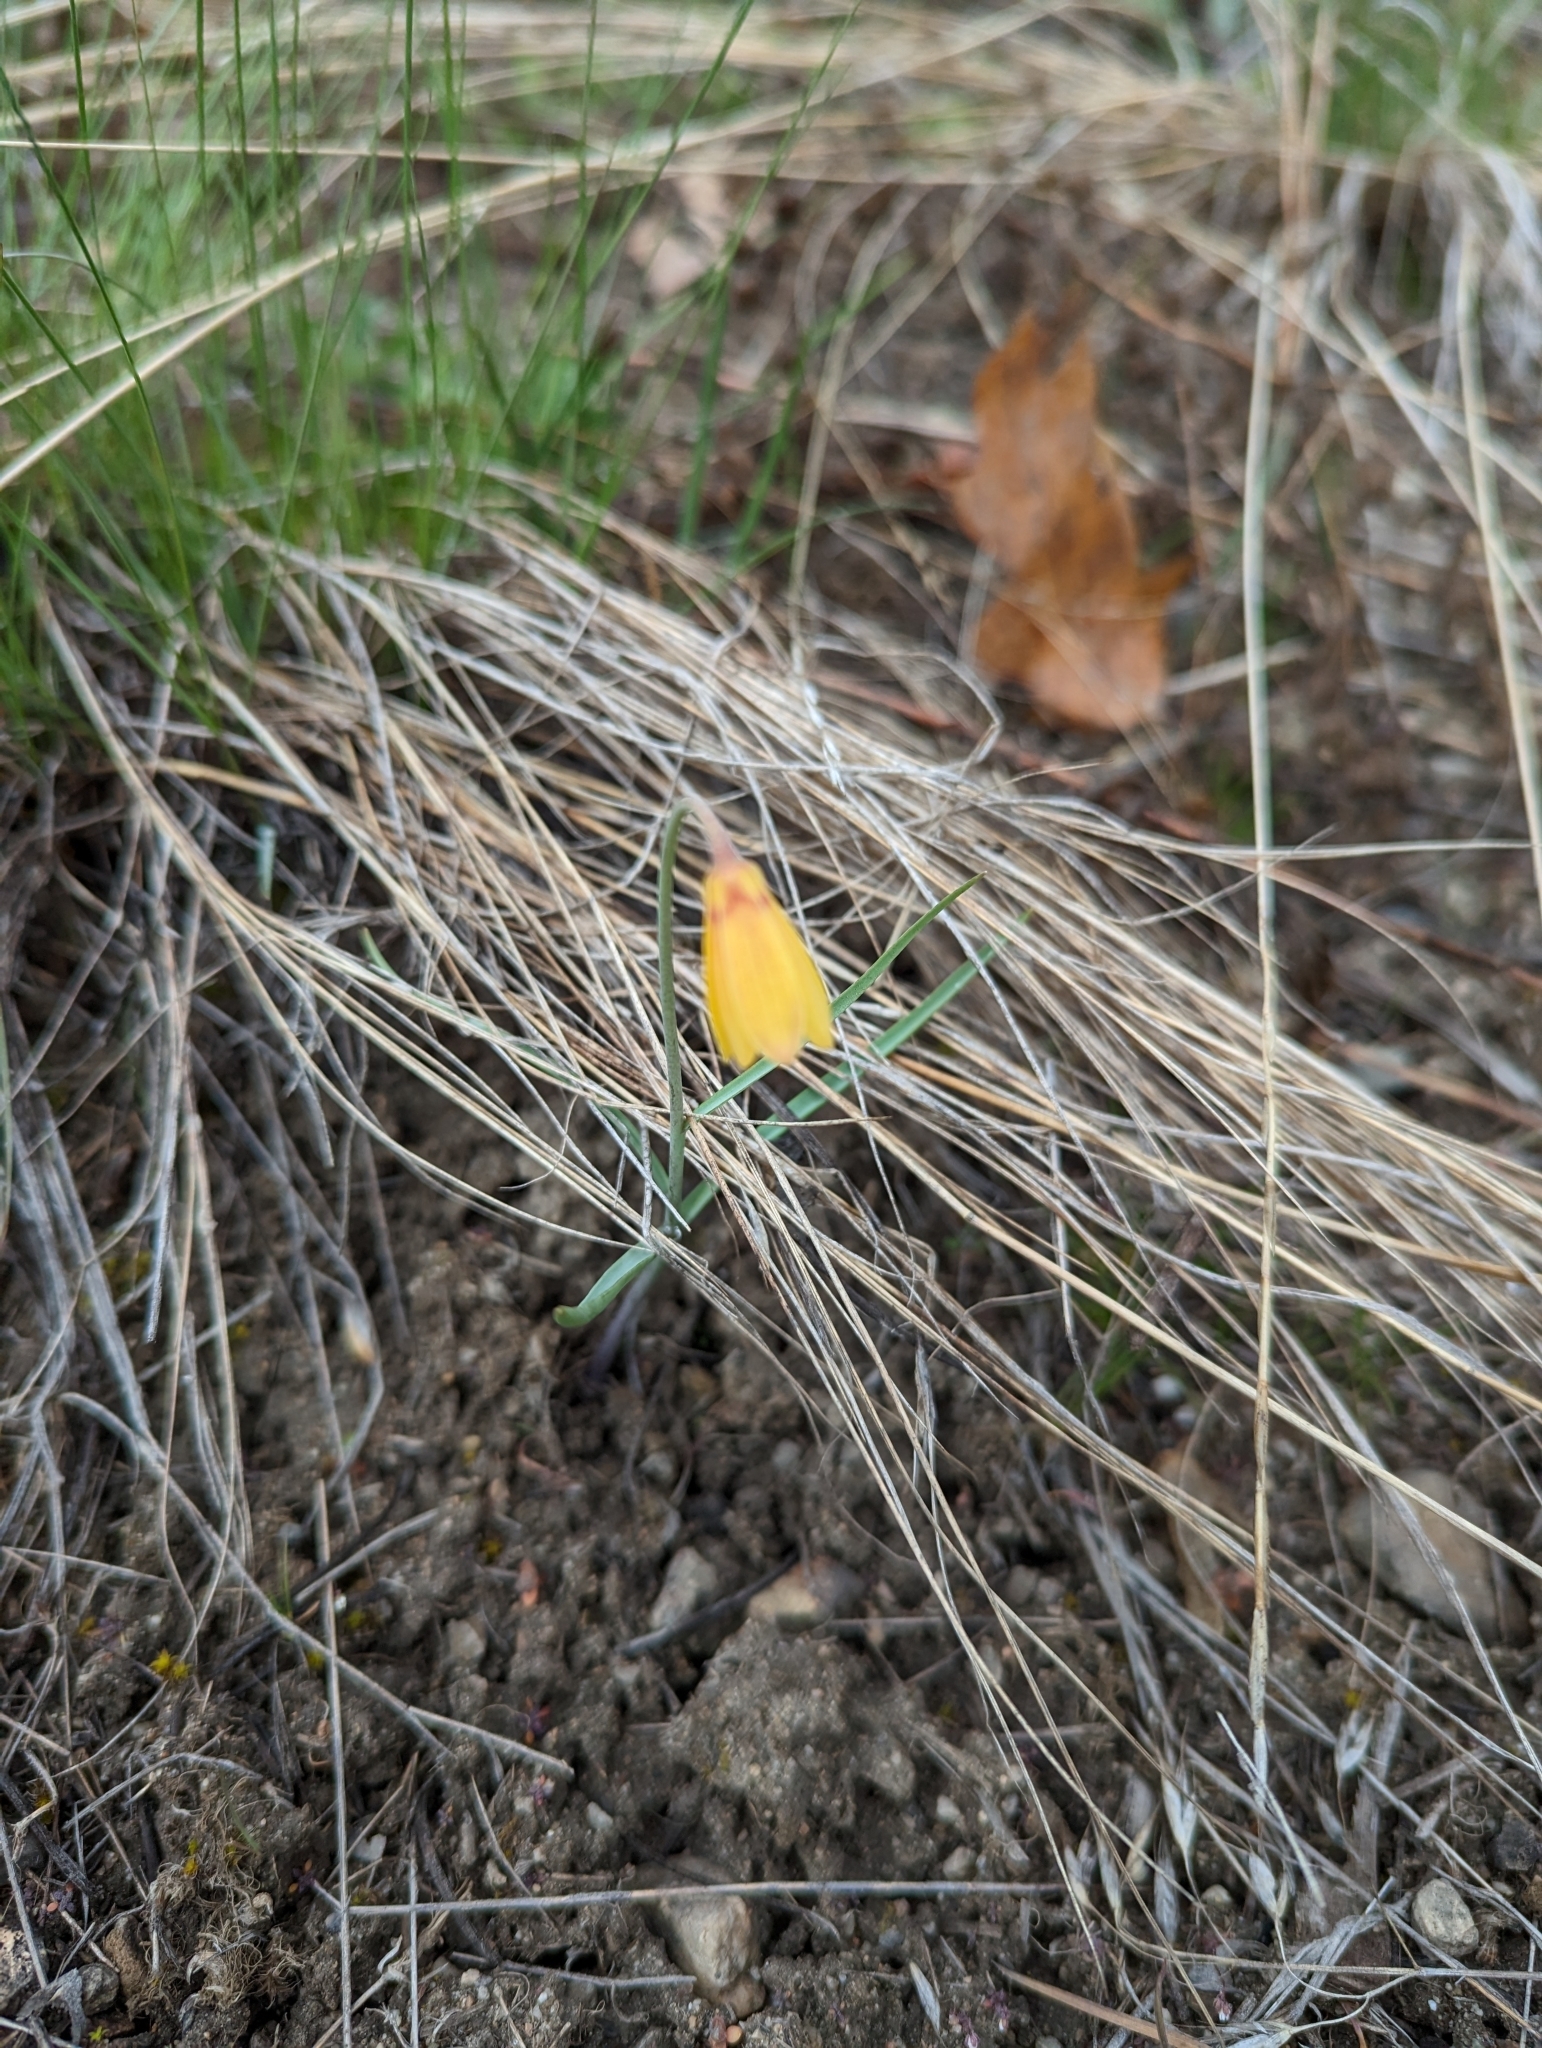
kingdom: Plantae
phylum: Tracheophyta
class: Liliopsida
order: Liliales
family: Liliaceae
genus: Fritillaria
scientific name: Fritillaria pudica
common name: Yellow fritillary
